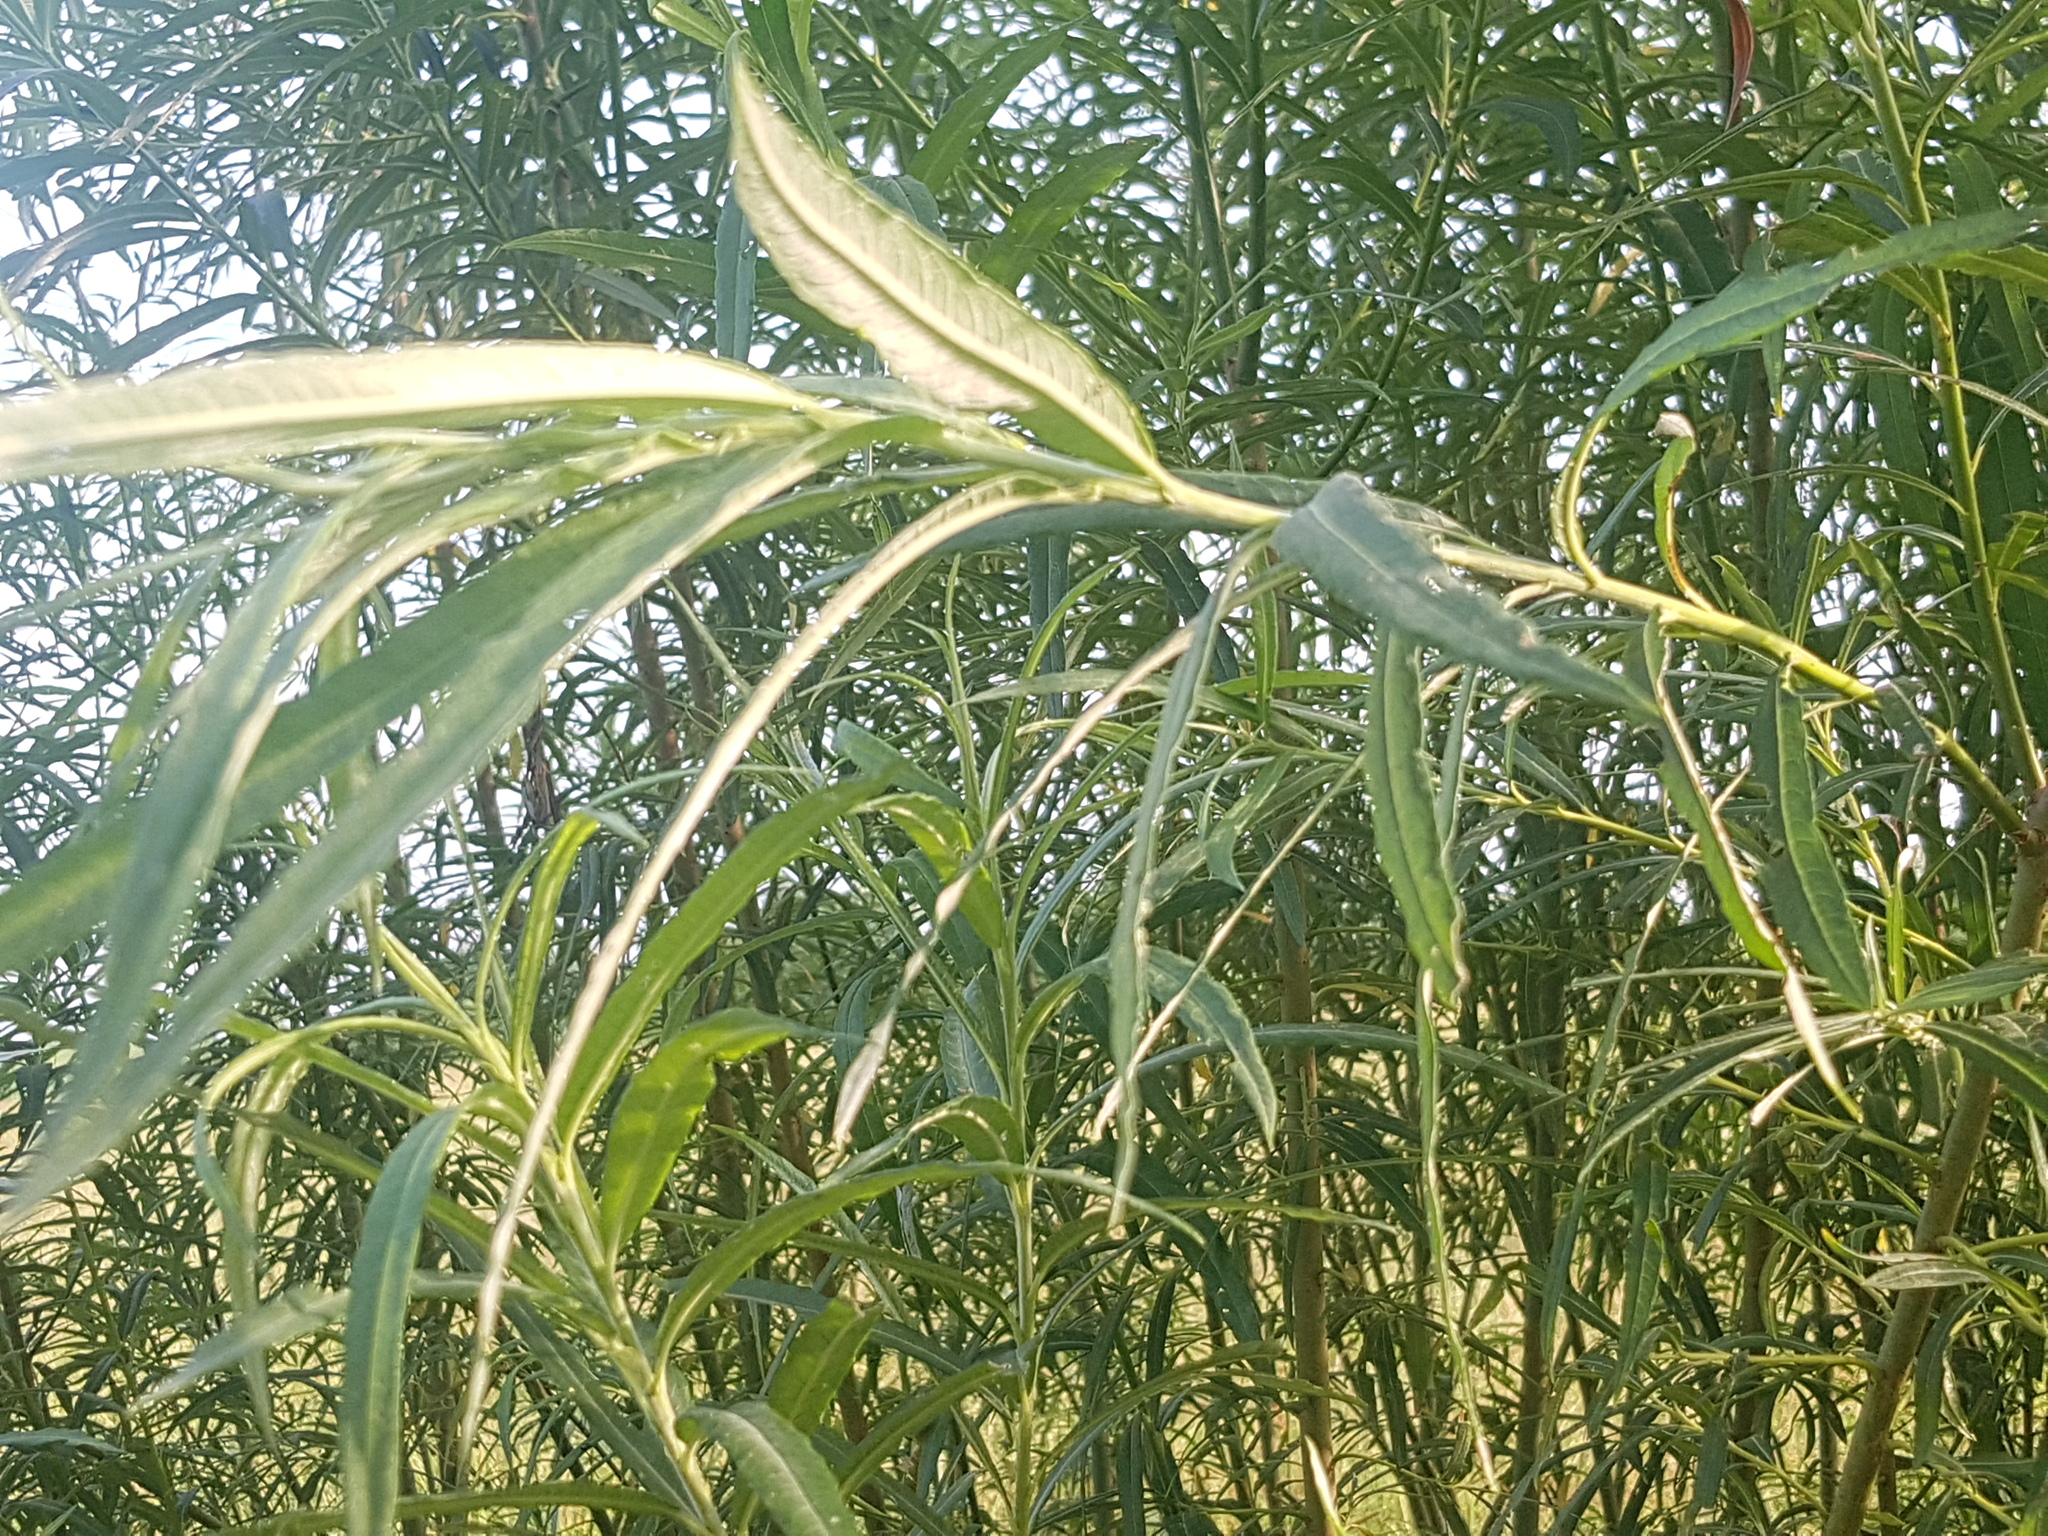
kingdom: Plantae
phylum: Tracheophyta
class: Magnoliopsida
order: Malpighiales
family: Salicaceae
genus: Salix
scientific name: Salix viminalis
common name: Osier
